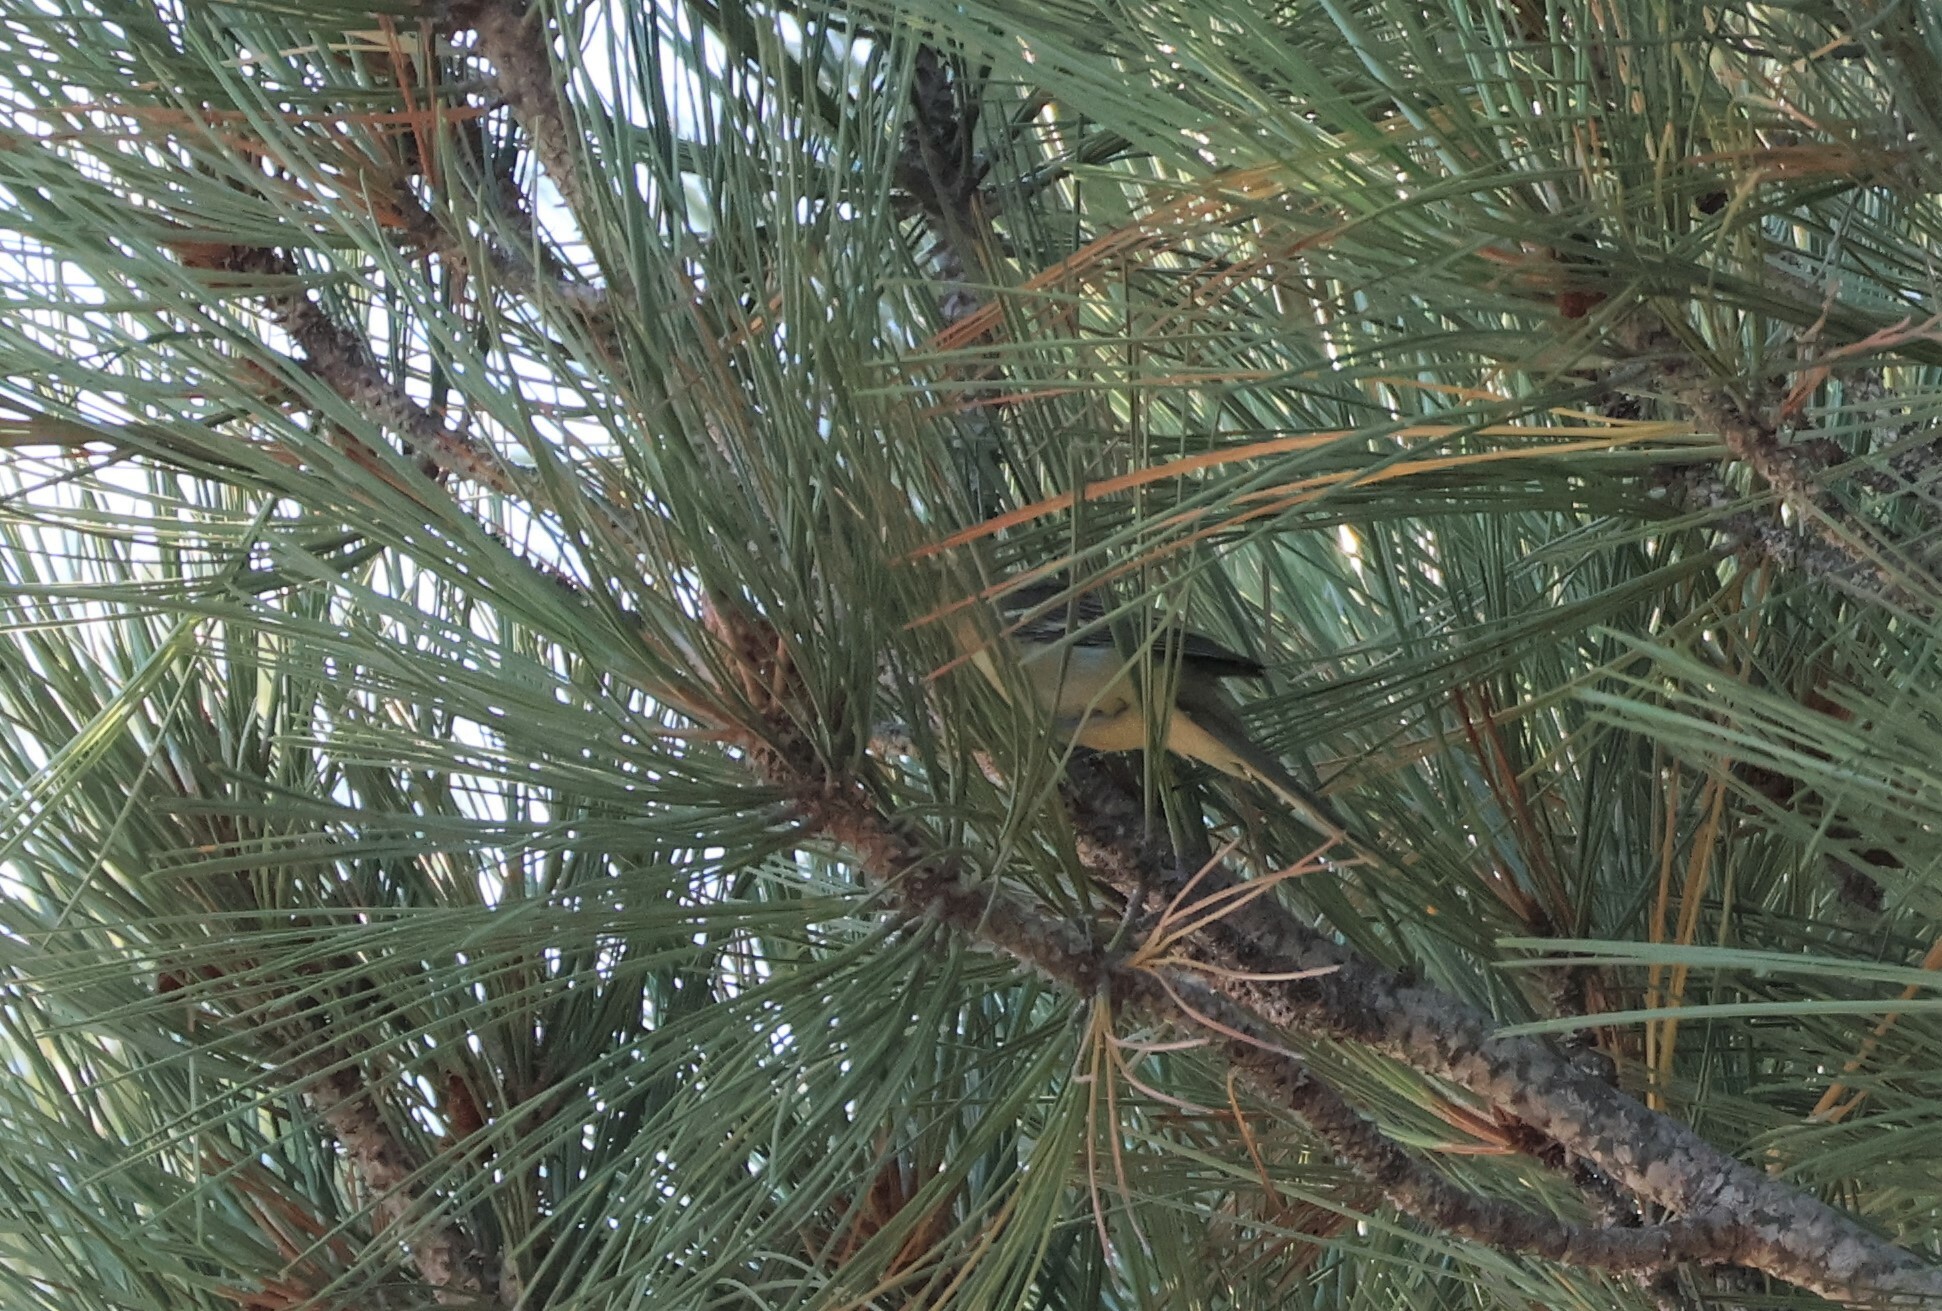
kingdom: Animalia
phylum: Chordata
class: Aves
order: Passeriformes
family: Icteridae
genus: Icterus
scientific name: Icterus cucullatus
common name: Hooded oriole
